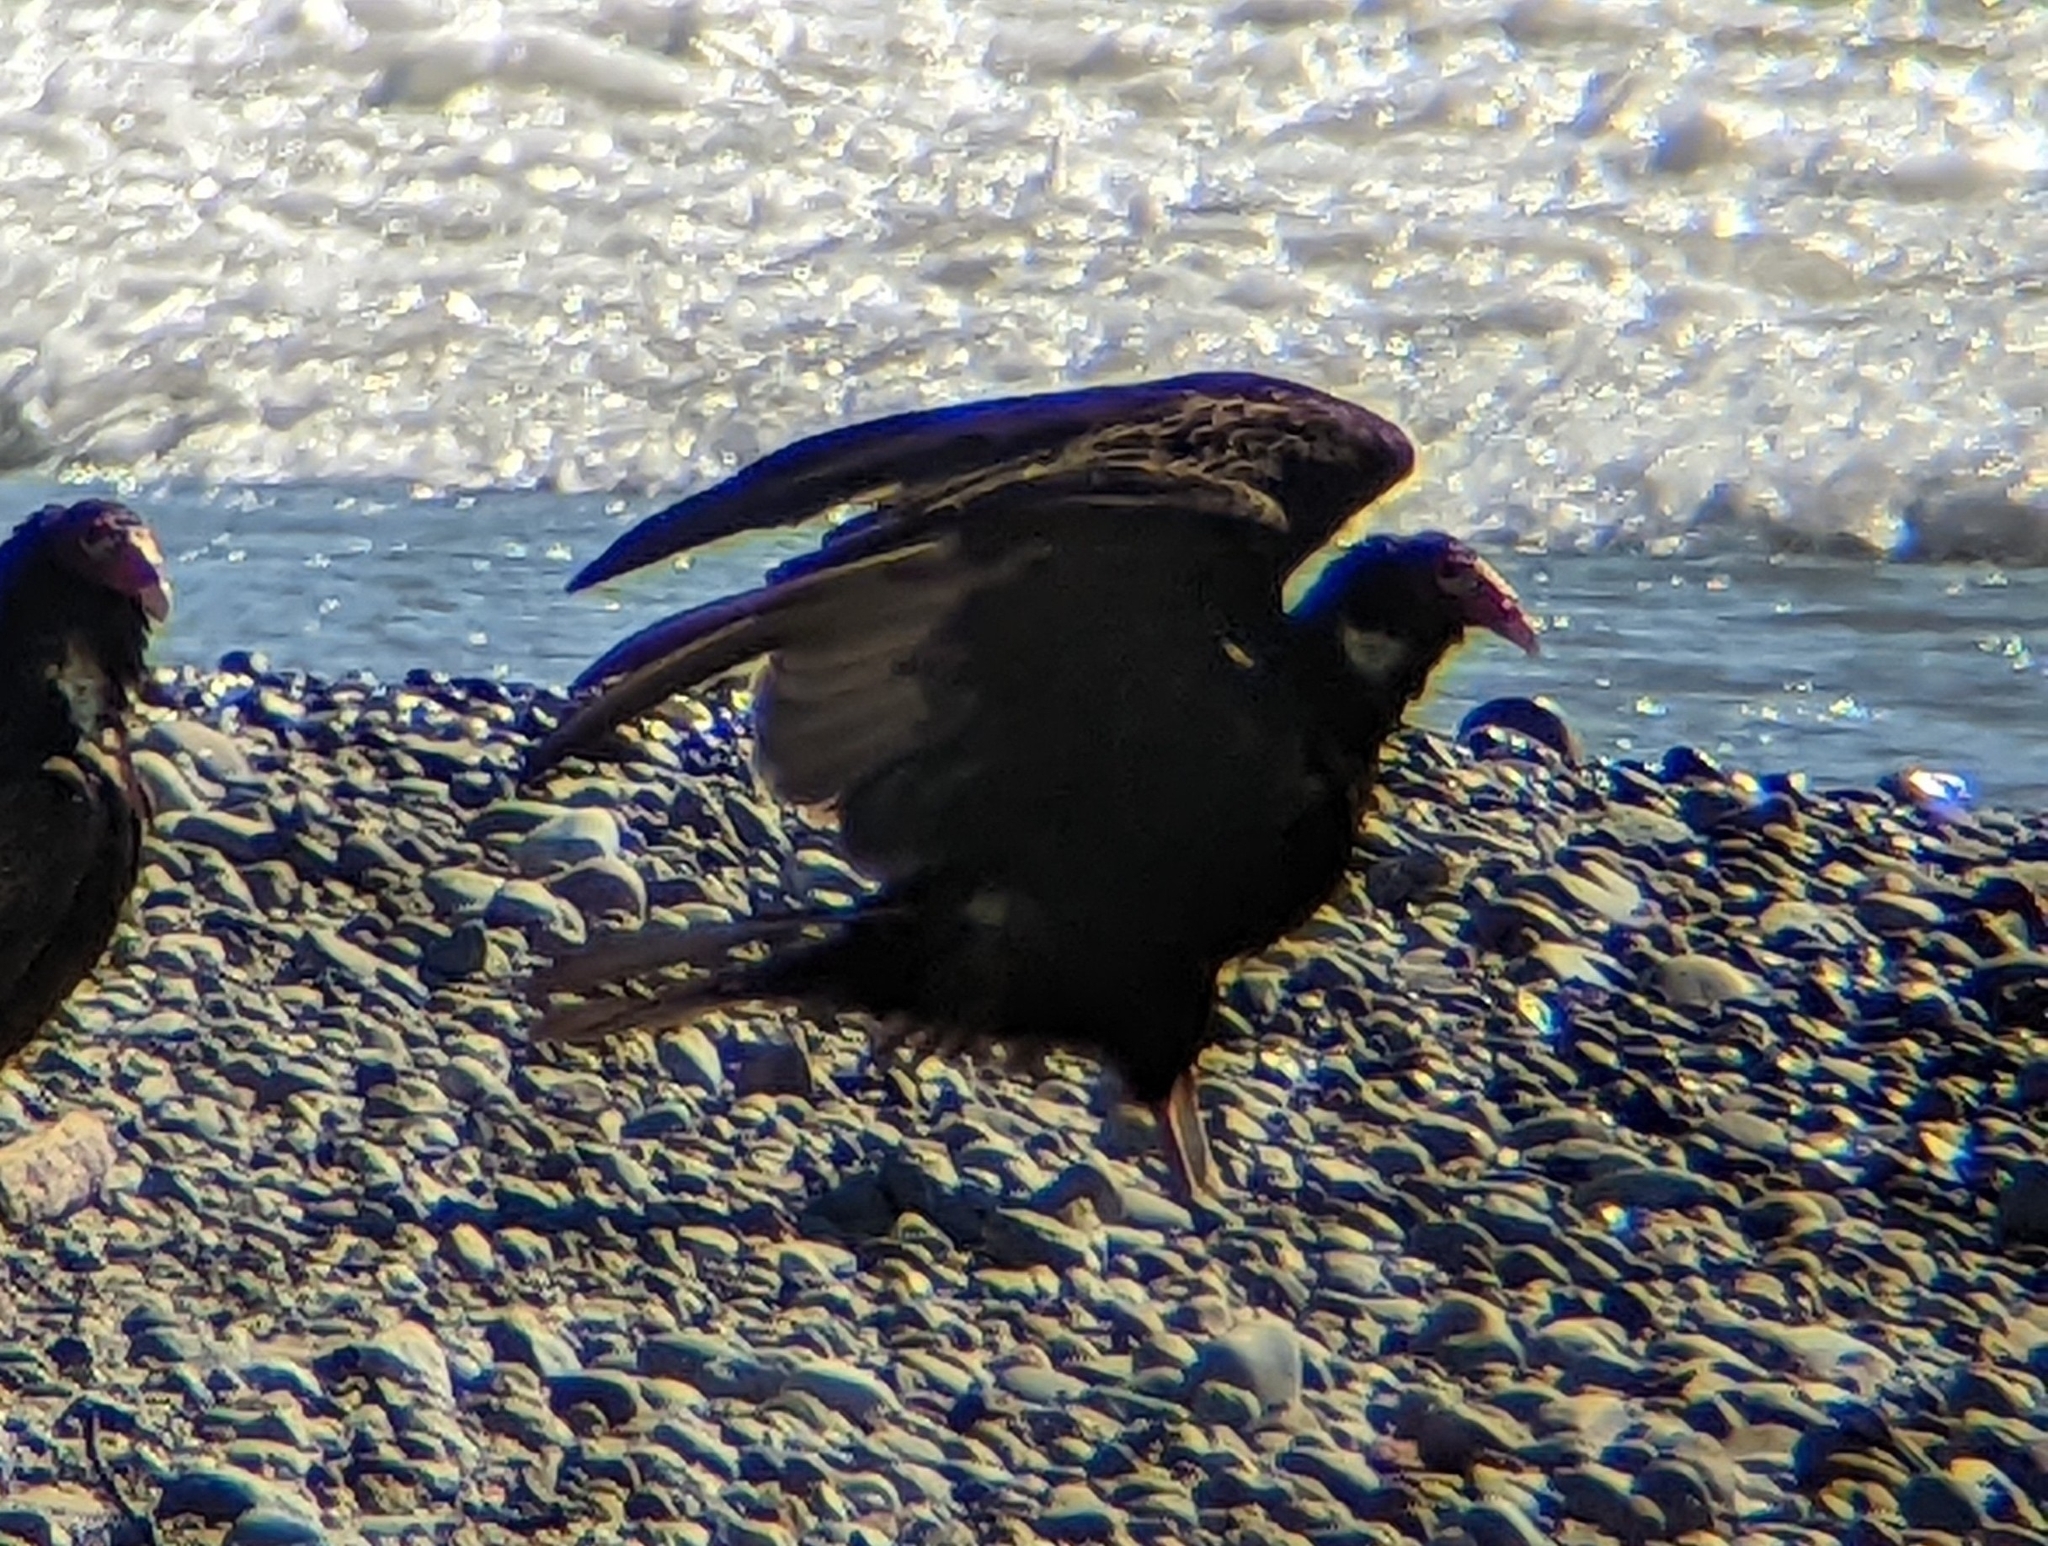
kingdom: Animalia
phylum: Chordata
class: Aves
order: Accipitriformes
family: Cathartidae
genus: Cathartes
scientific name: Cathartes aura
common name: Turkey vulture
